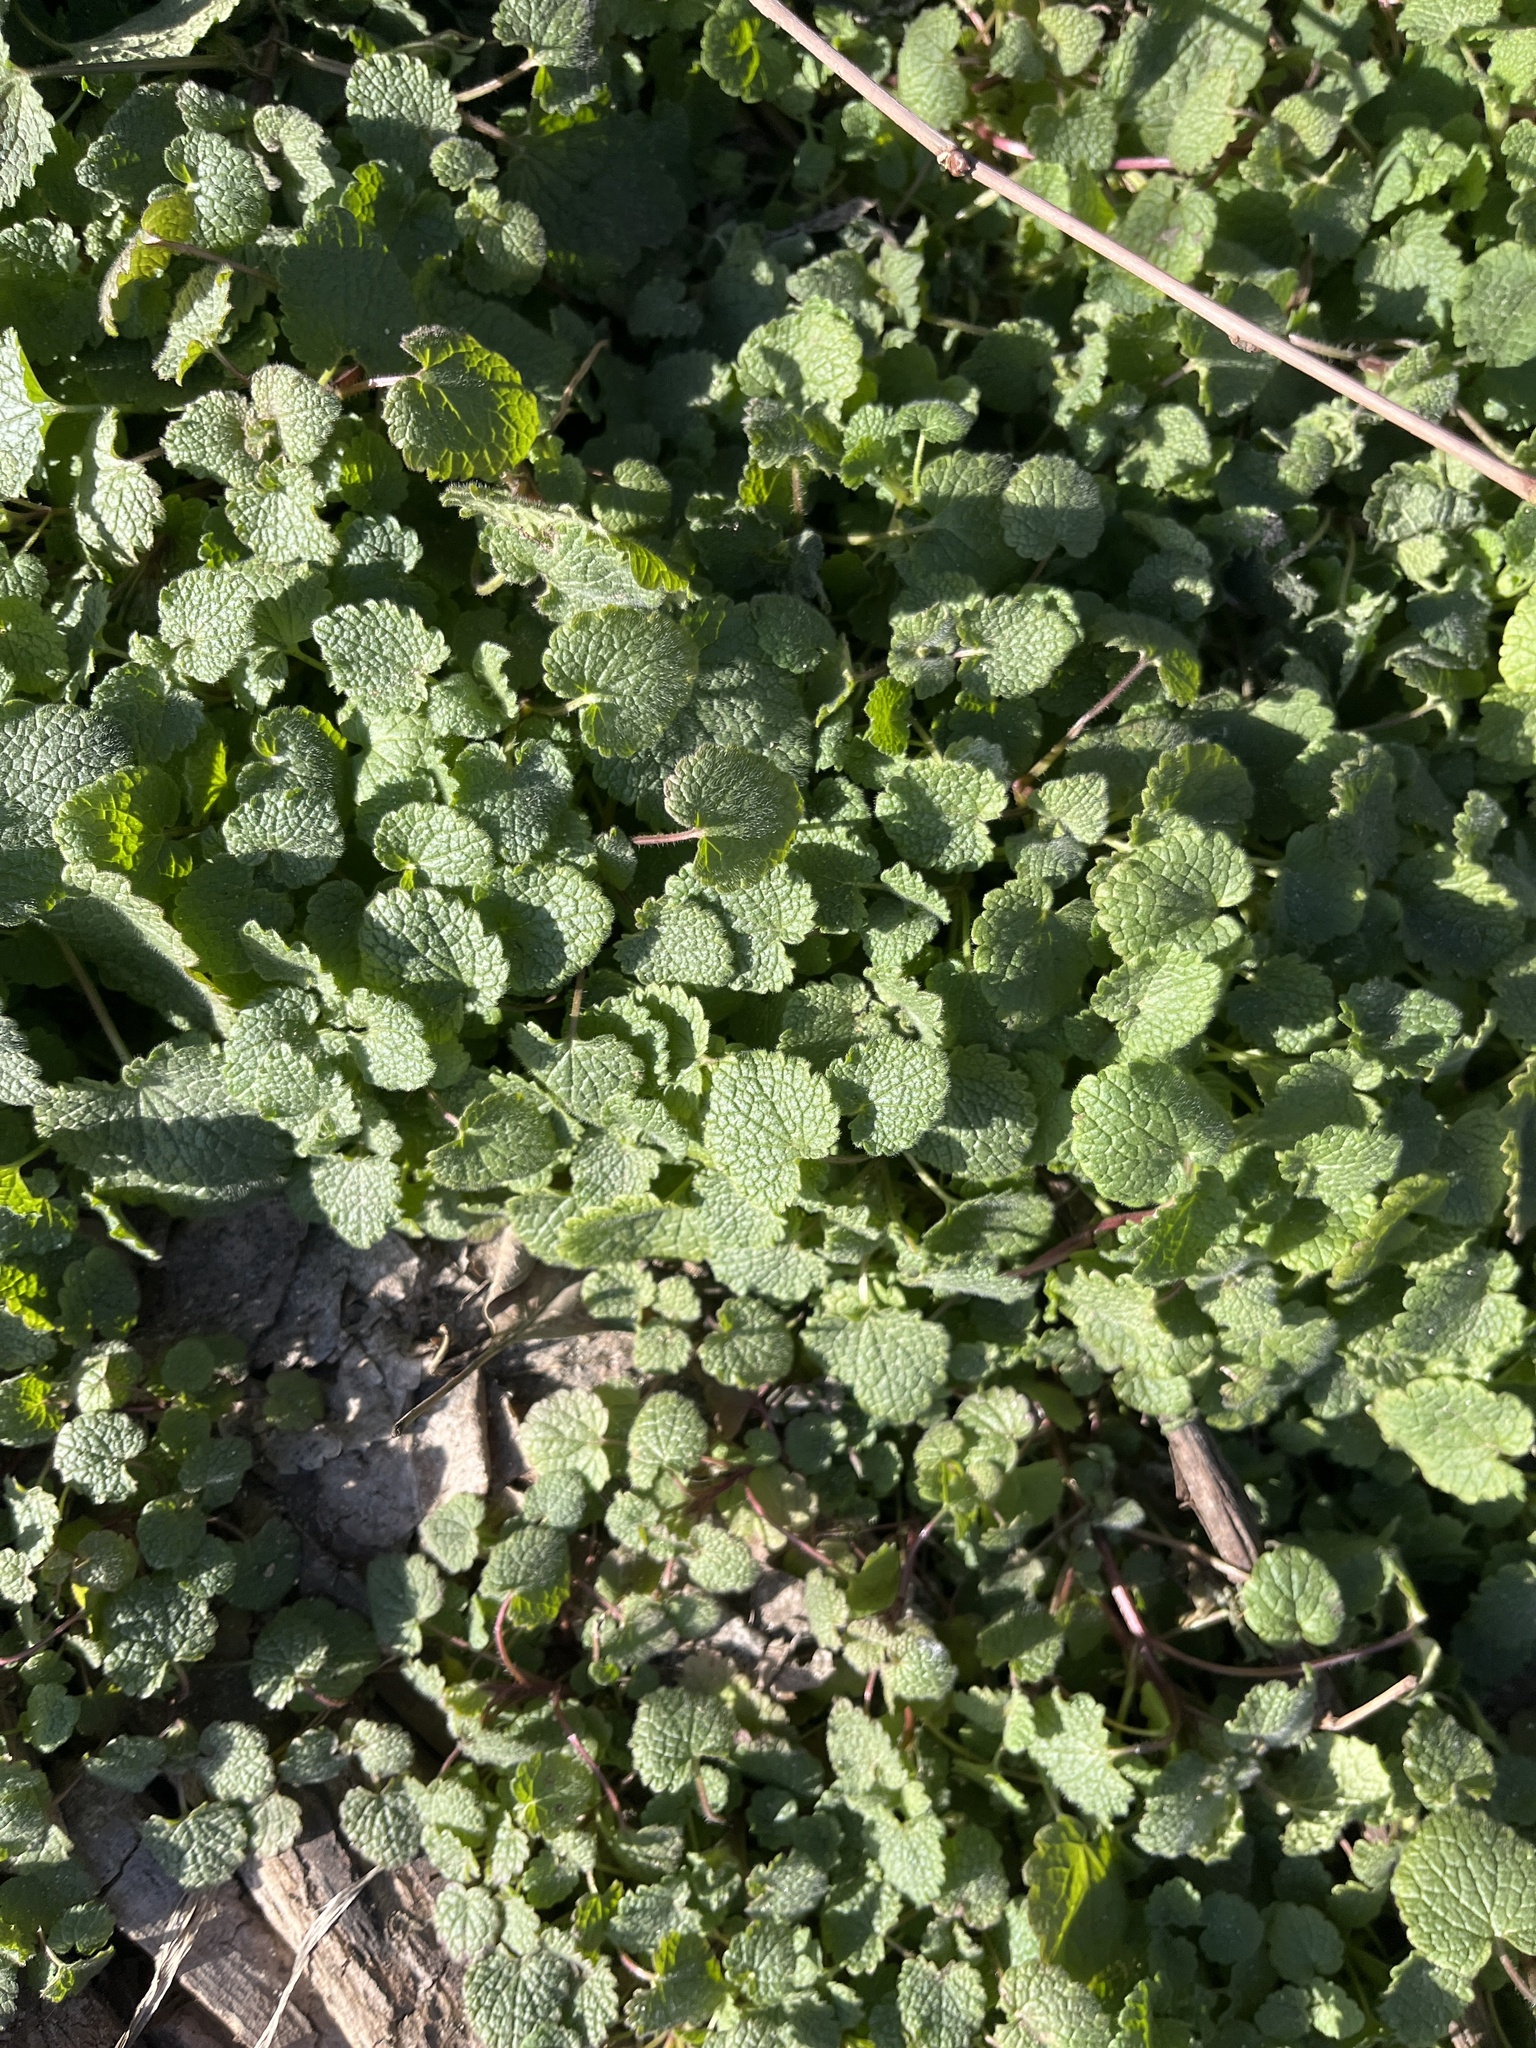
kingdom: Plantae
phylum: Tracheophyta
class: Magnoliopsida
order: Lamiales
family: Lamiaceae
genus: Lamium
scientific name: Lamium purpureum
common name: Red dead-nettle
